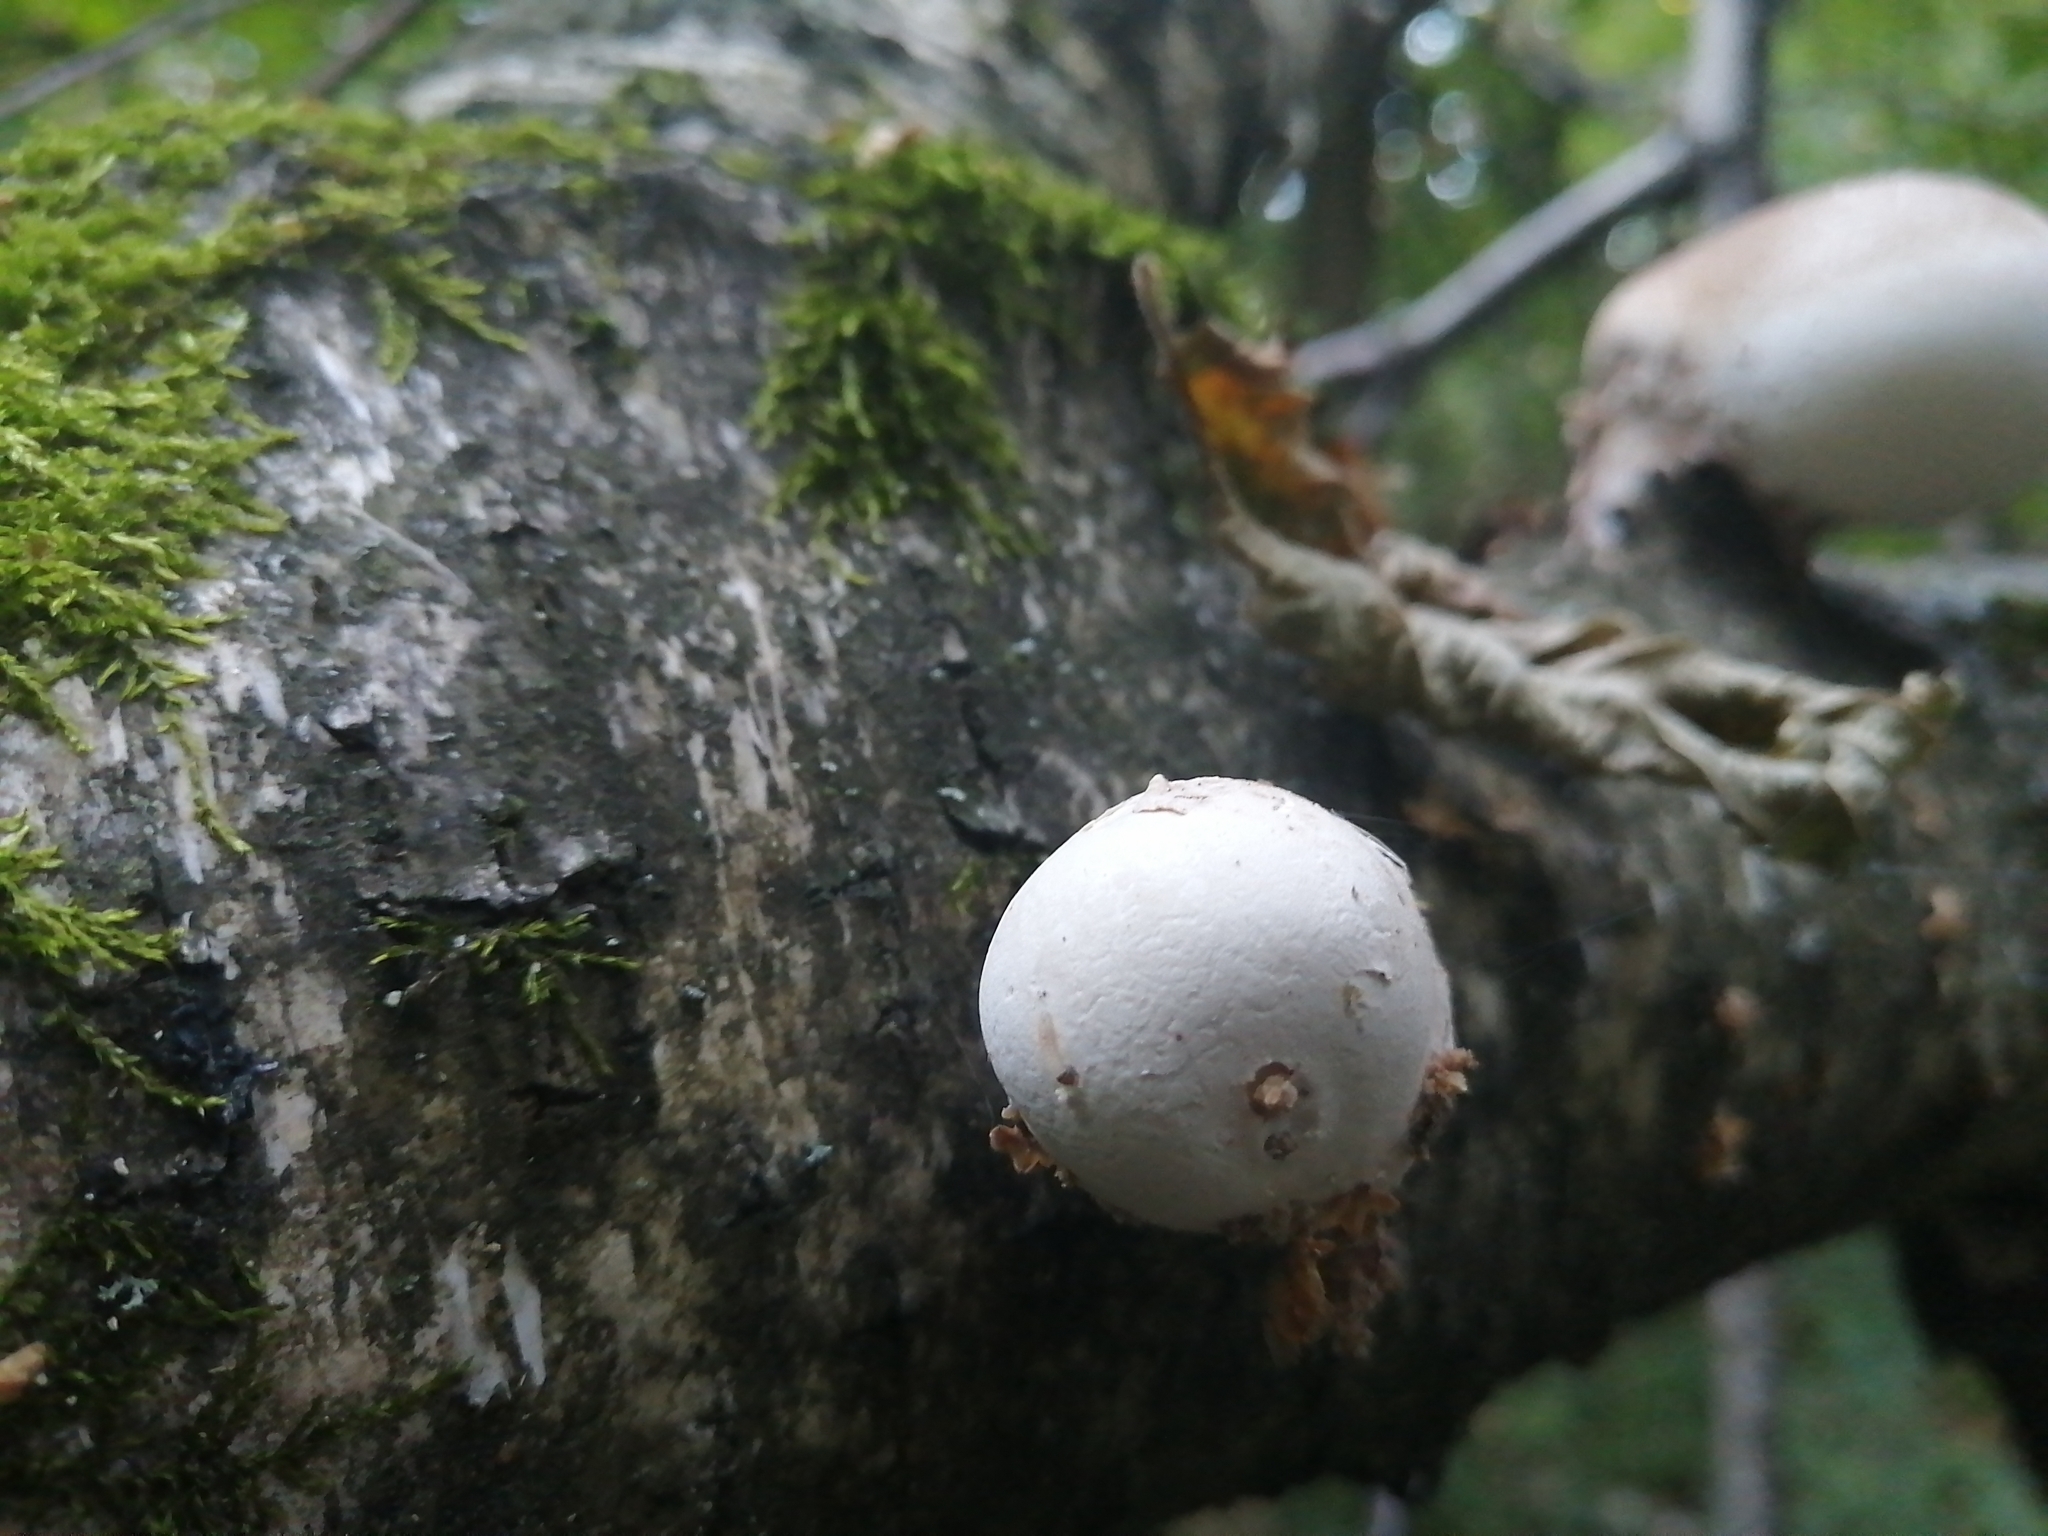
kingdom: Fungi
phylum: Basidiomycota
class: Agaricomycetes
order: Polyporales
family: Fomitopsidaceae
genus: Fomitopsis
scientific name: Fomitopsis betulina
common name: Birch polypore
